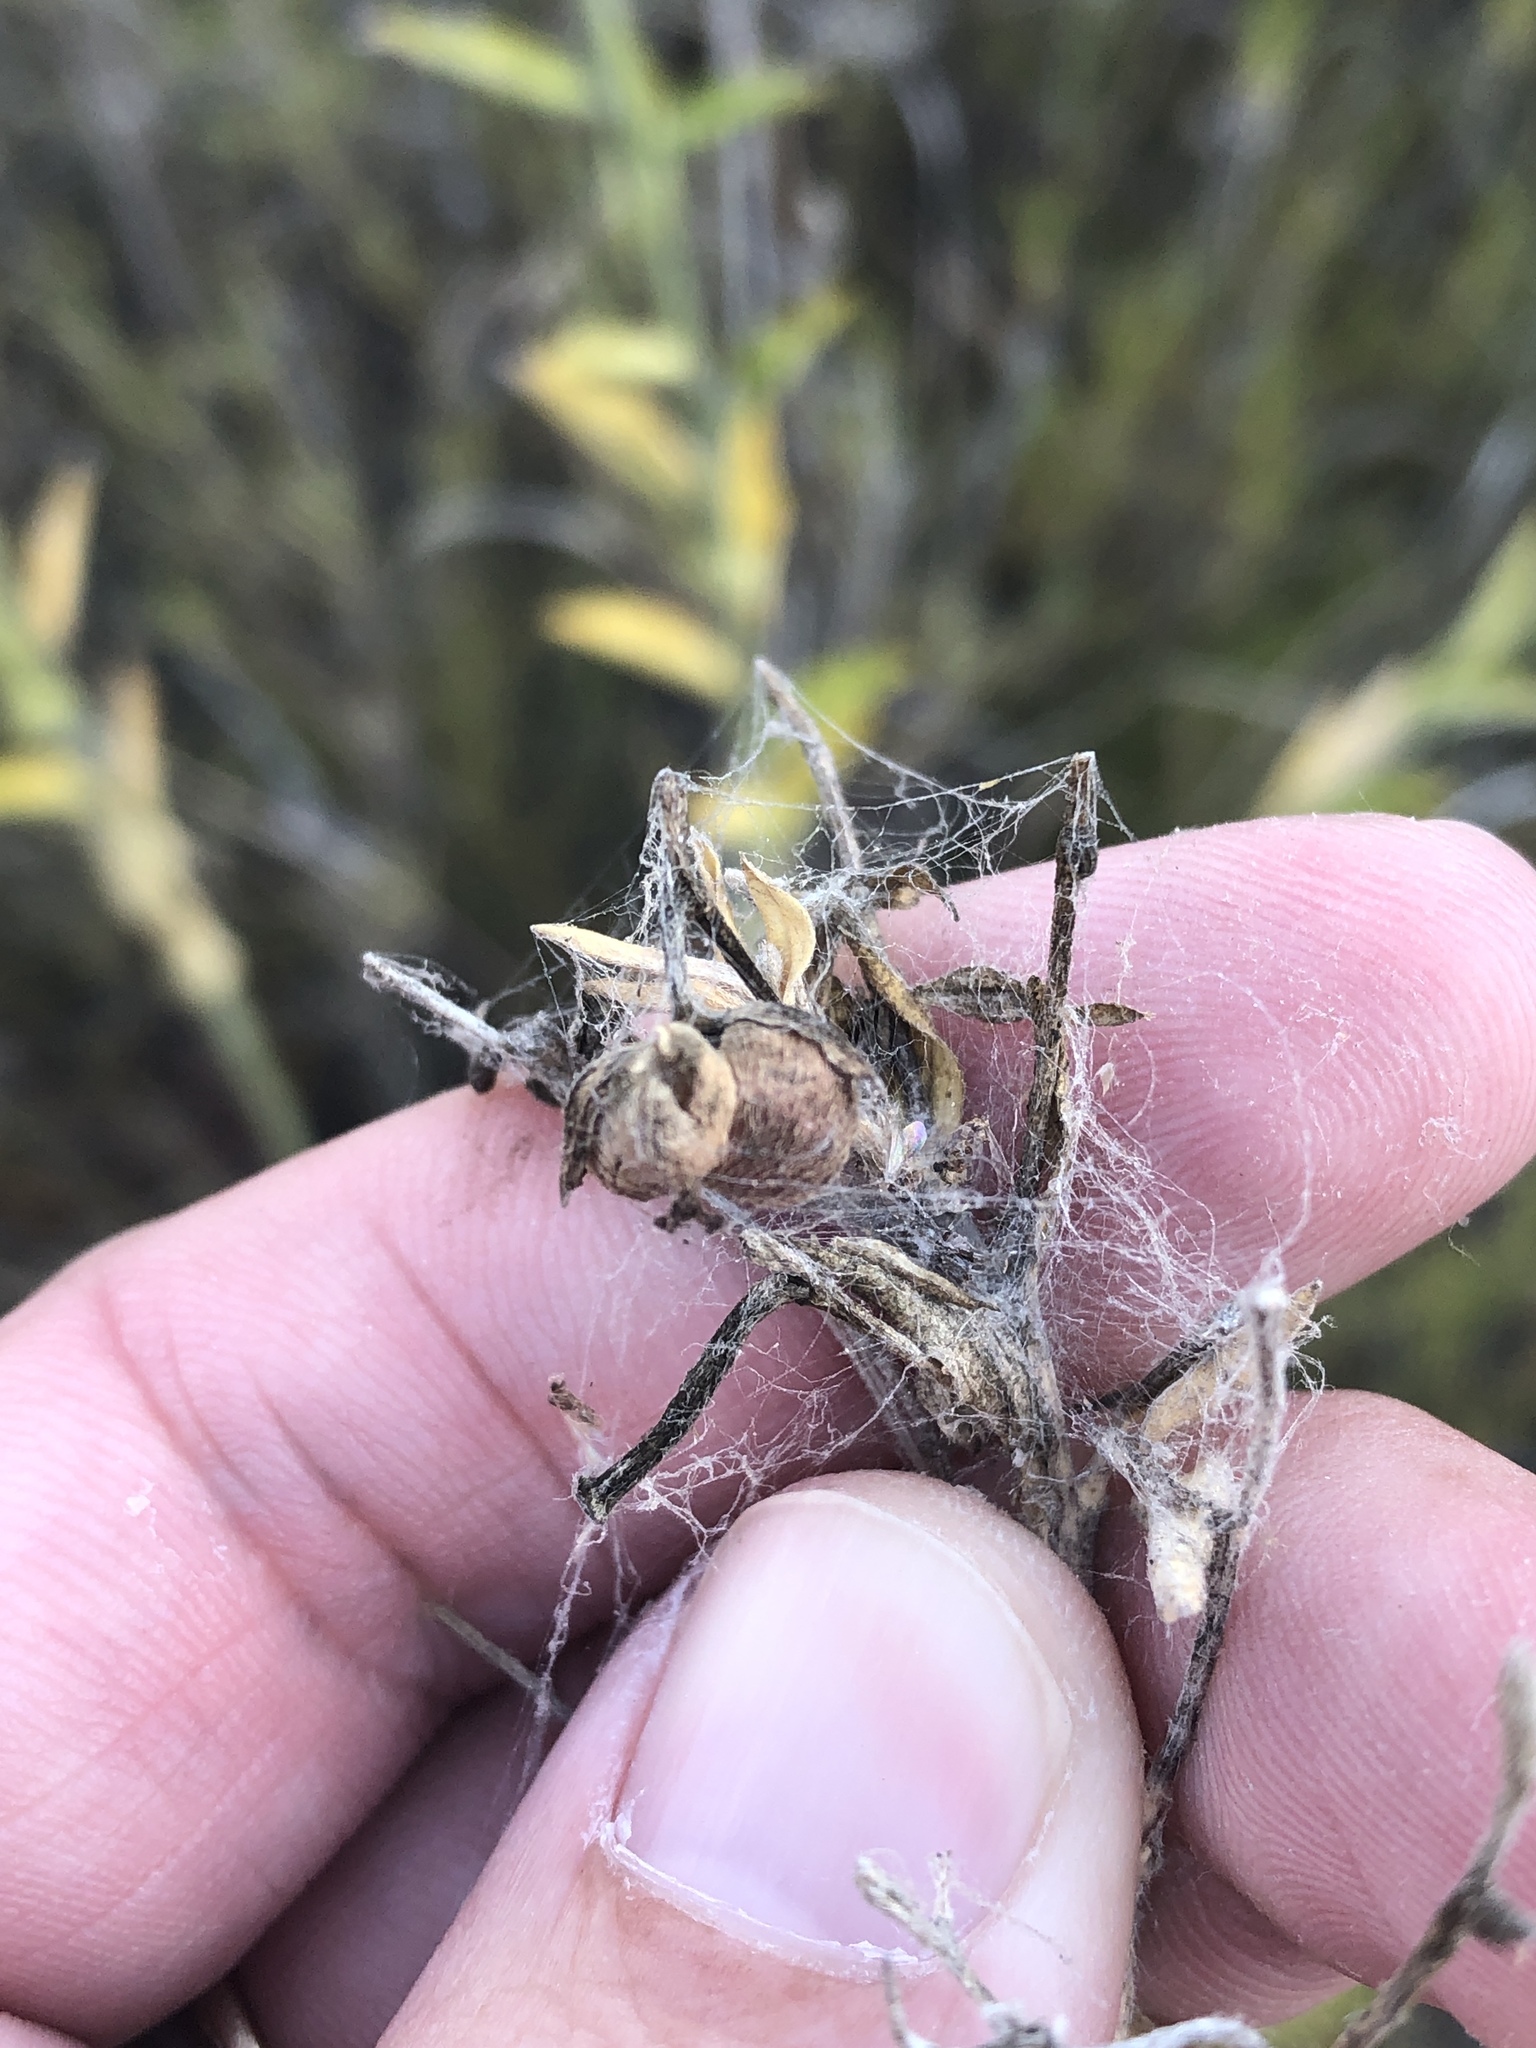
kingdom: Plantae
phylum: Tracheophyta
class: Magnoliopsida
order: Malpighiales
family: Euphorbiaceae
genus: Ditaxis
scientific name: Ditaxis mercurialina
